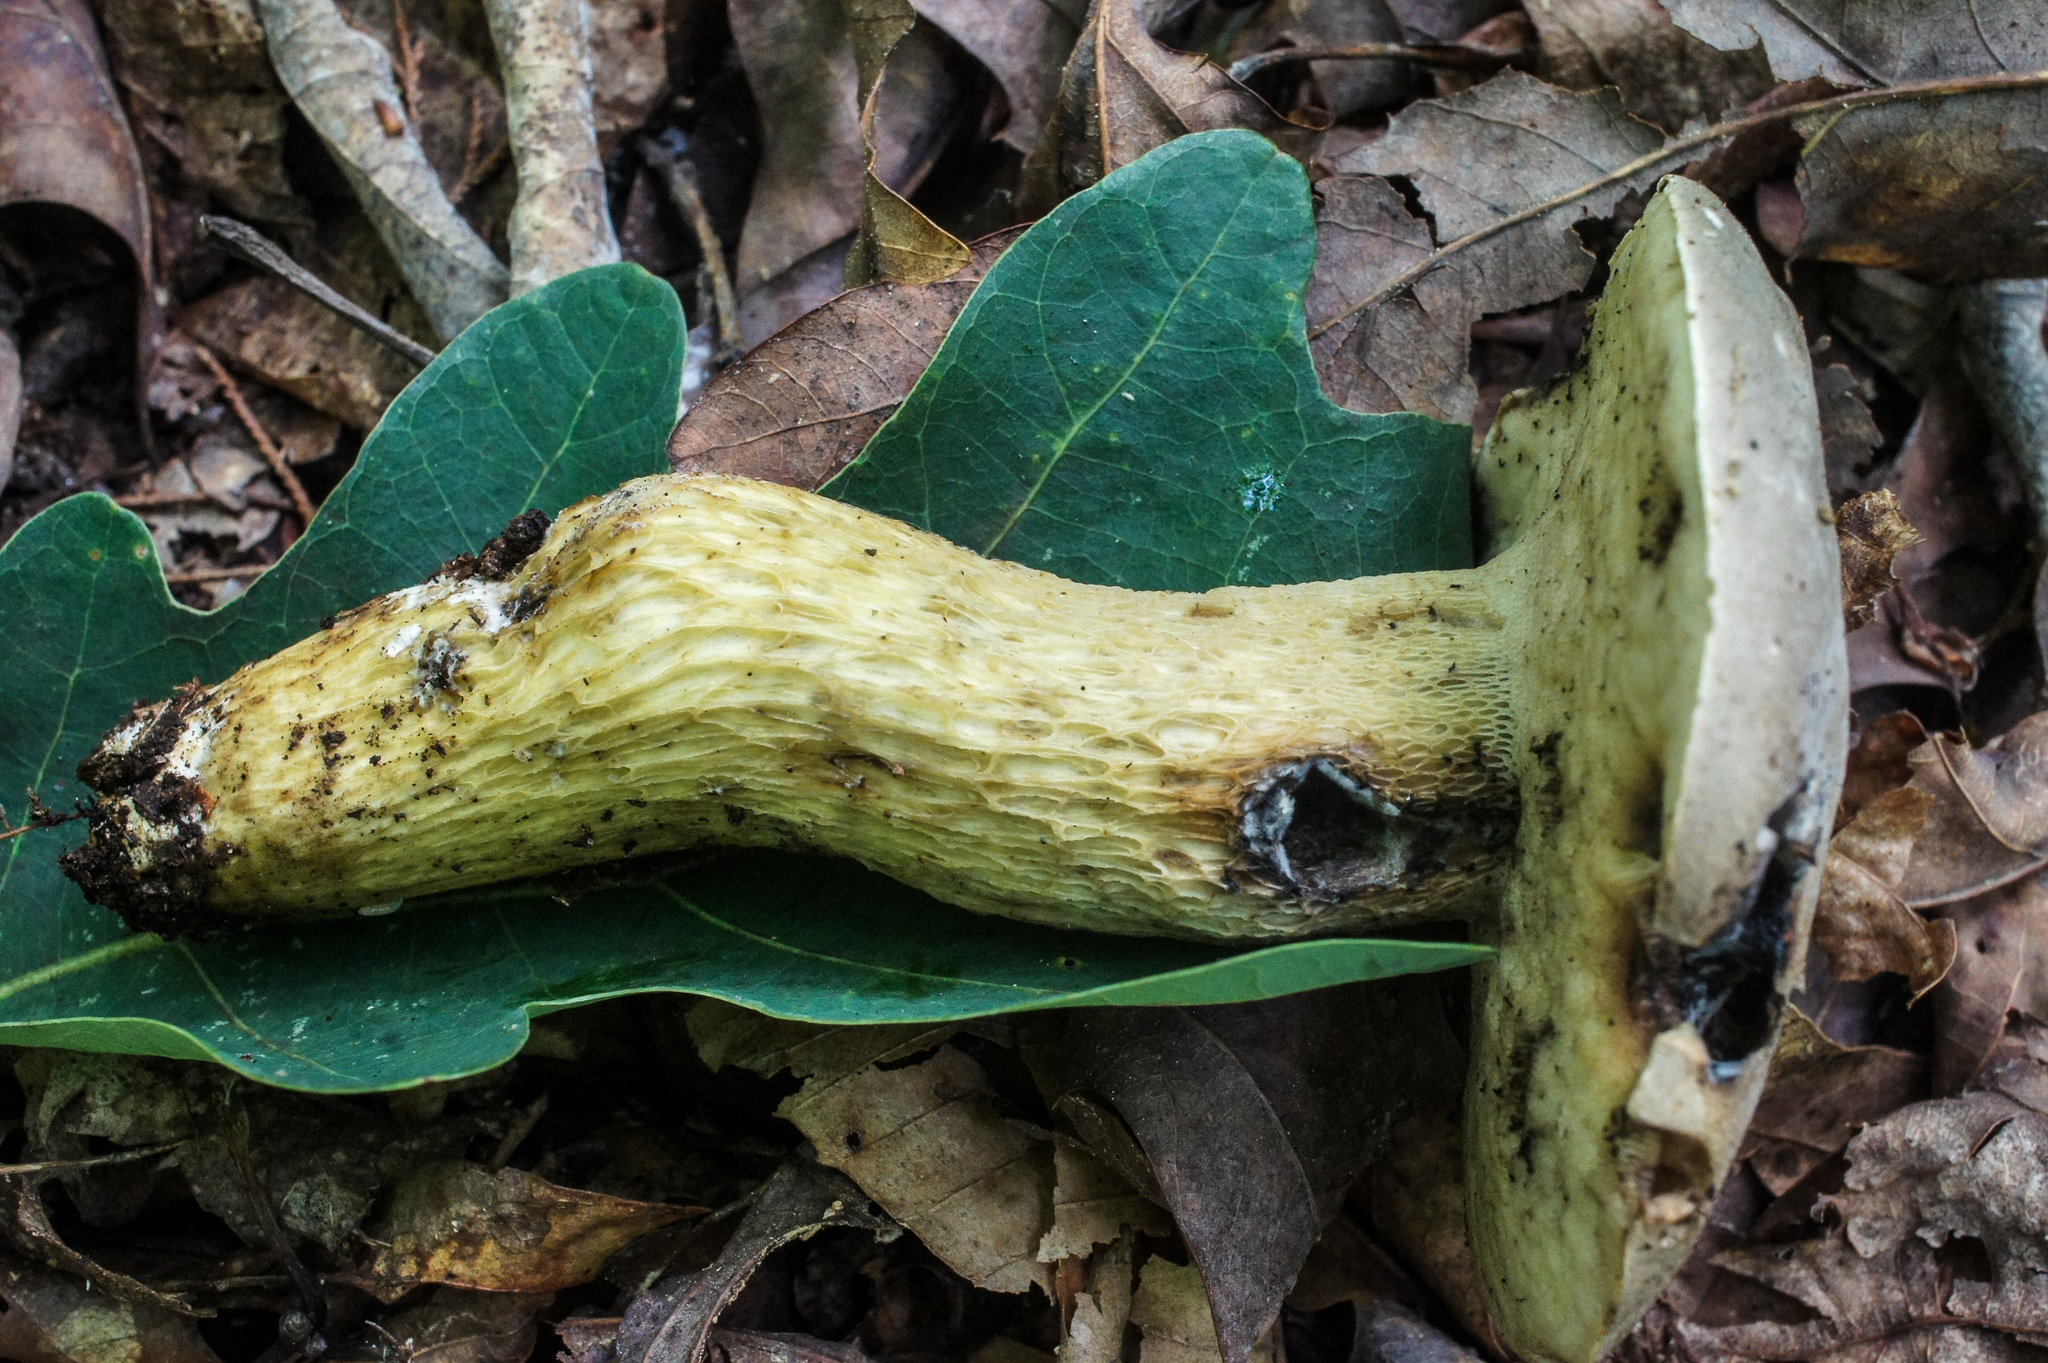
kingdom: Fungi
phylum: Basidiomycota
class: Agaricomycetes
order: Boletales
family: Boletaceae
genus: Retiboletus
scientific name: Retiboletus griseus
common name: Grey bolete
